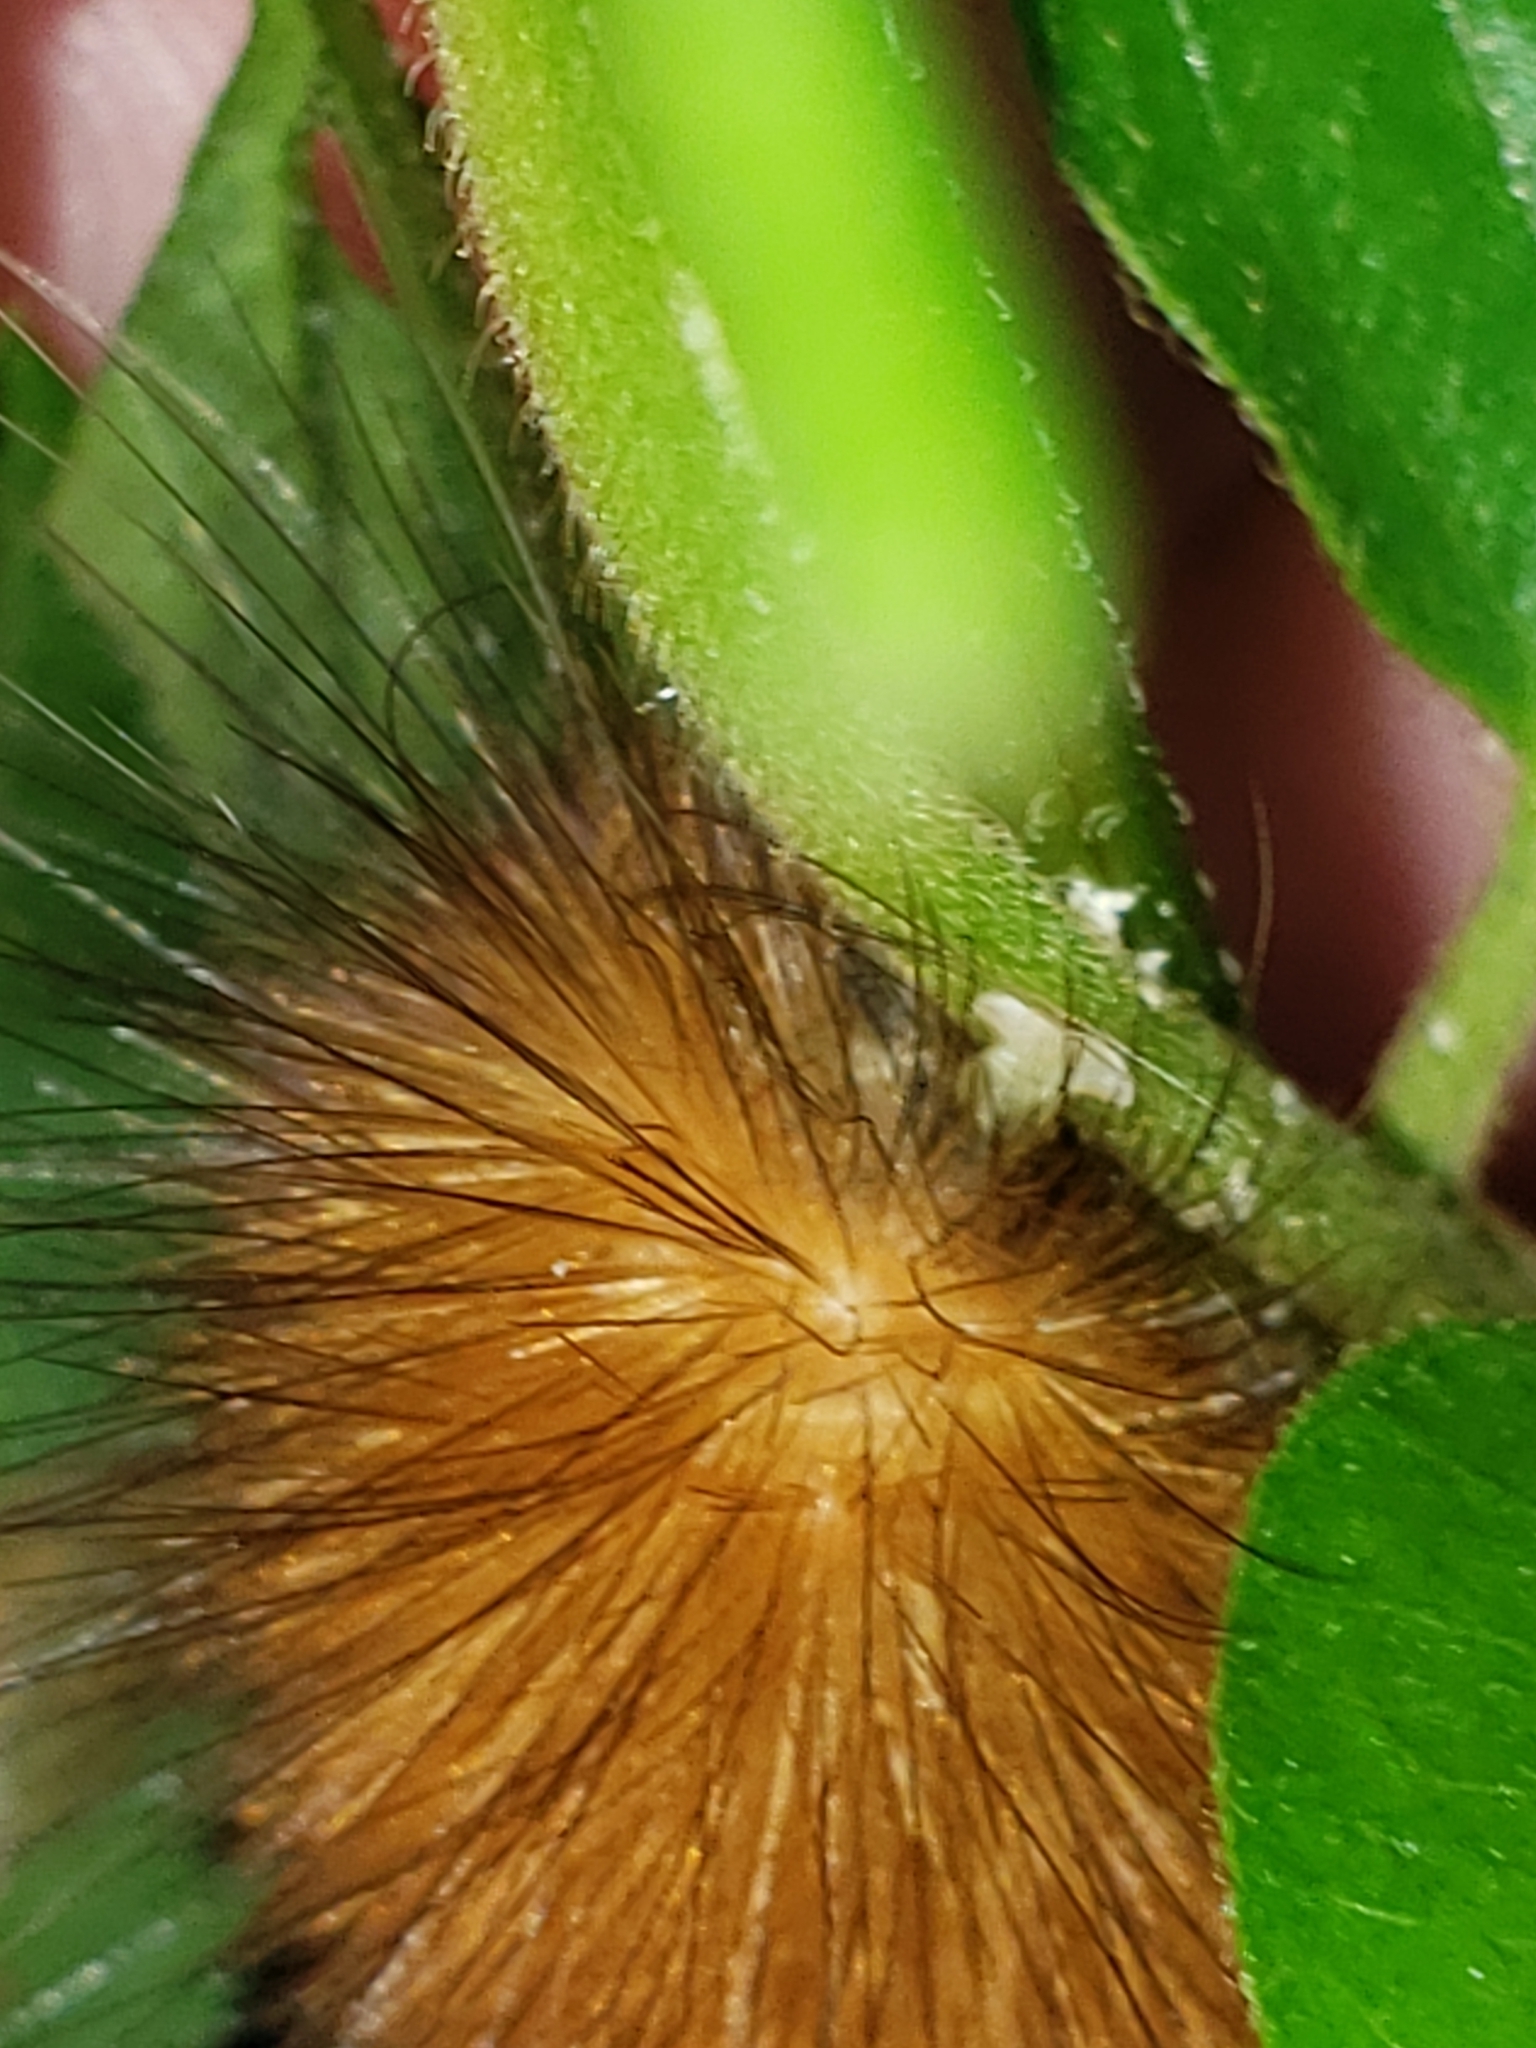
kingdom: Animalia
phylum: Arthropoda
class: Insecta
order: Lepidoptera
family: Erebidae
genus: Spilosoma
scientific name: Spilosoma virginica
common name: Virginia tiger moth
